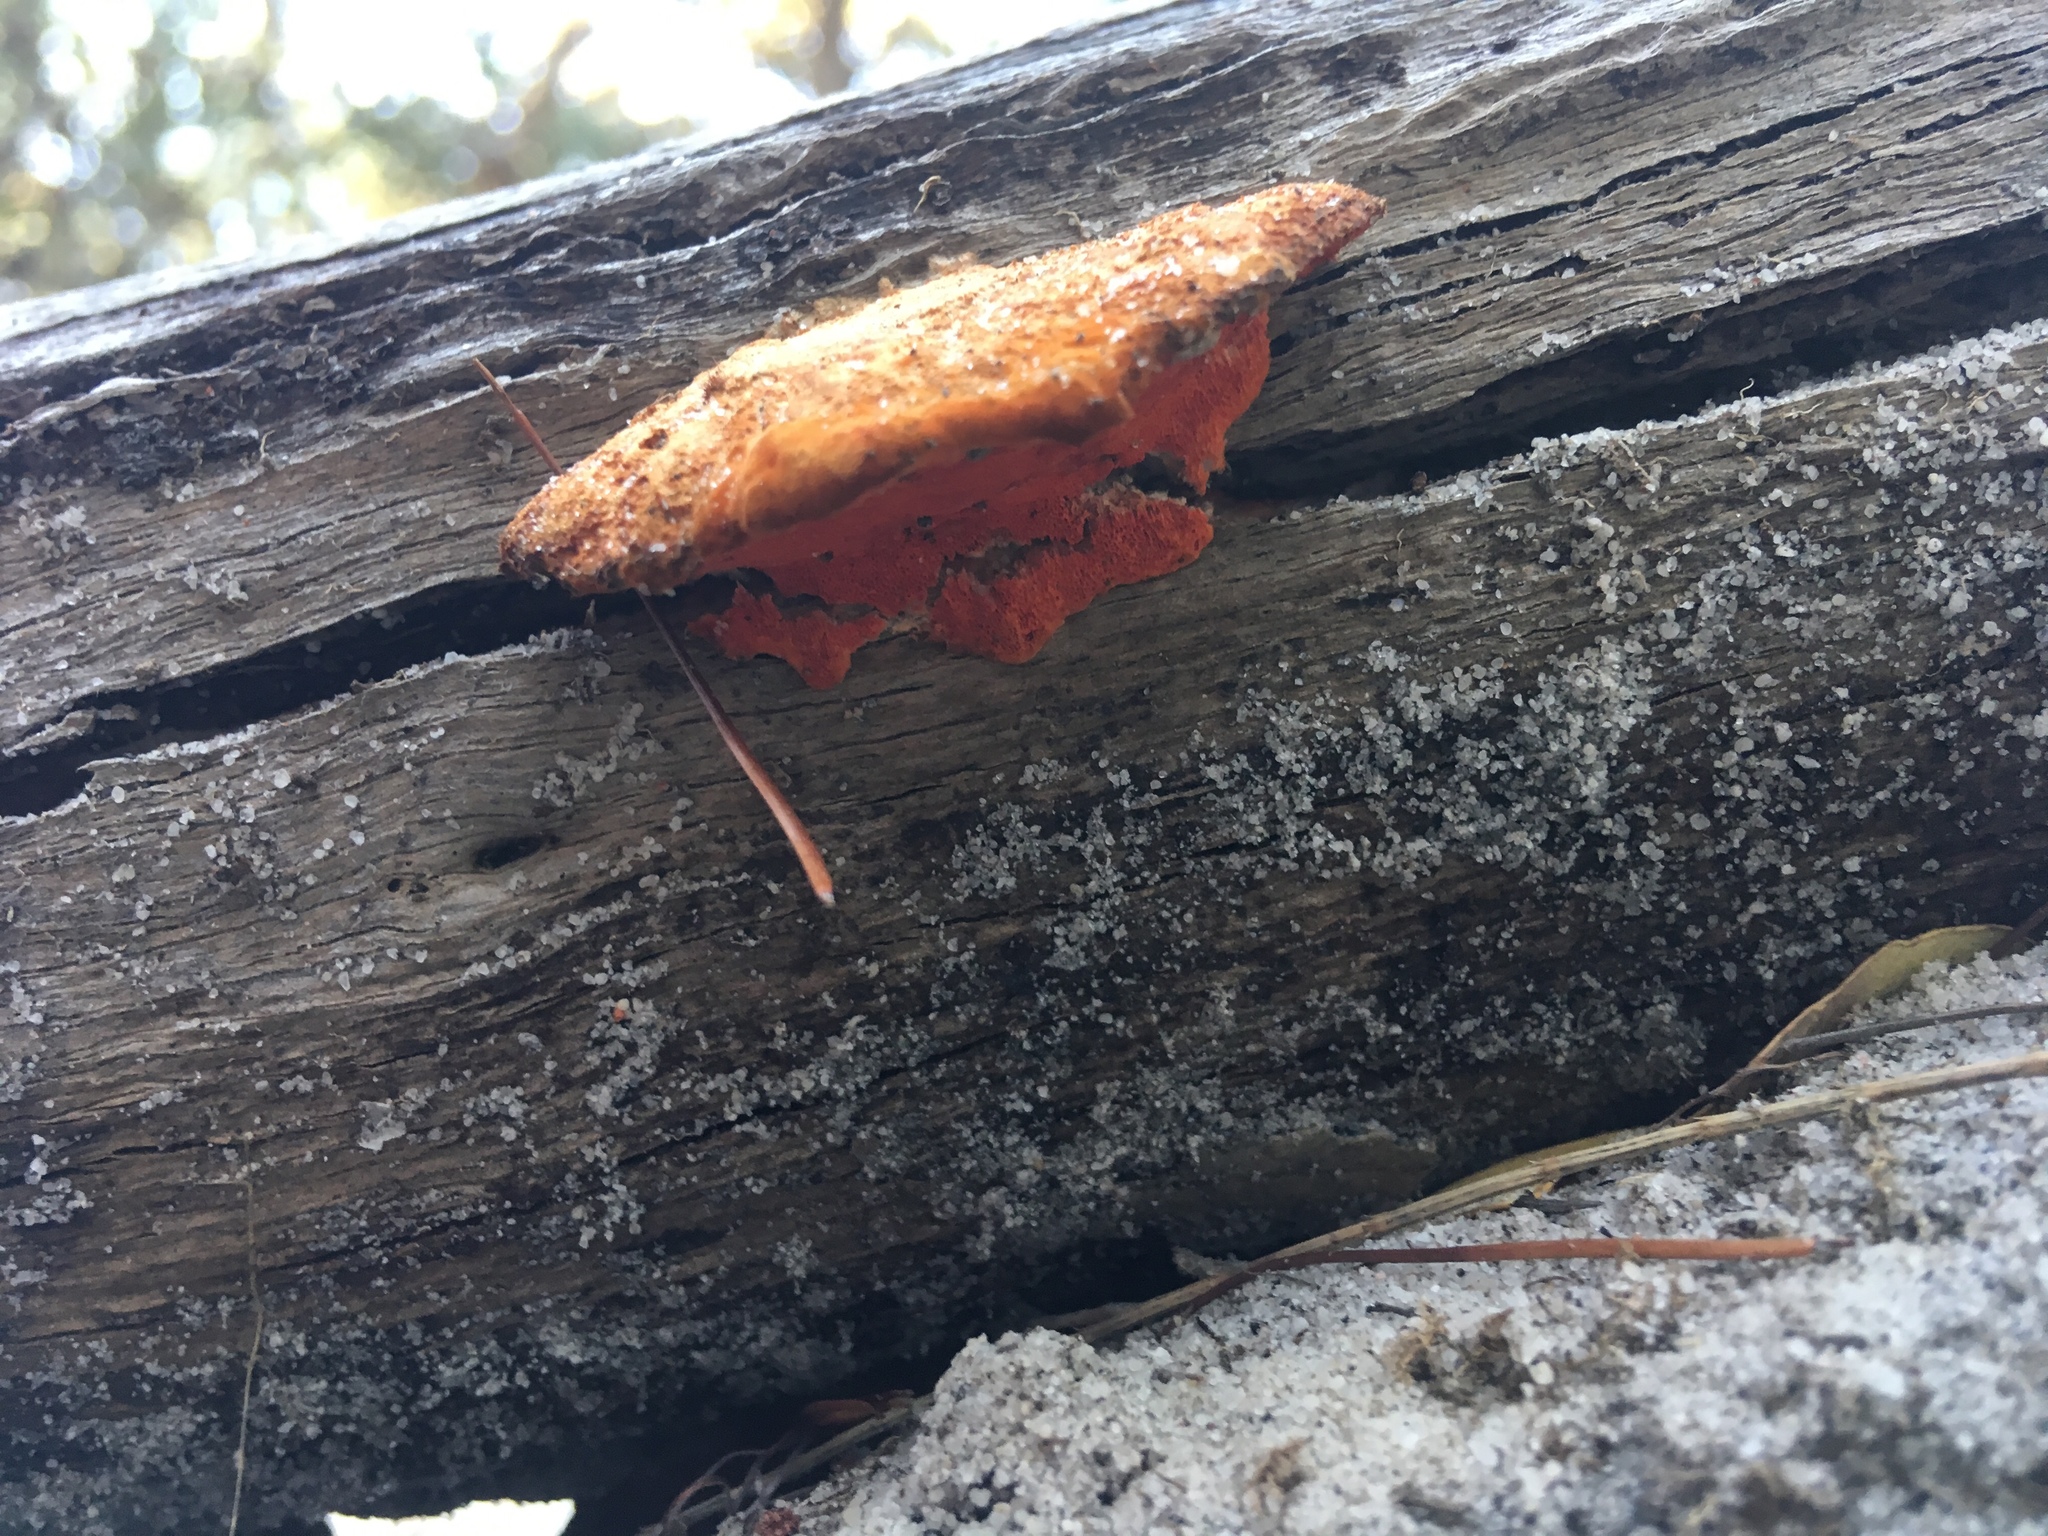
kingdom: Fungi
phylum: Basidiomycota
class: Agaricomycetes
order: Polyporales
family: Polyporaceae
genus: Trametes
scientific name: Trametes coccinea
